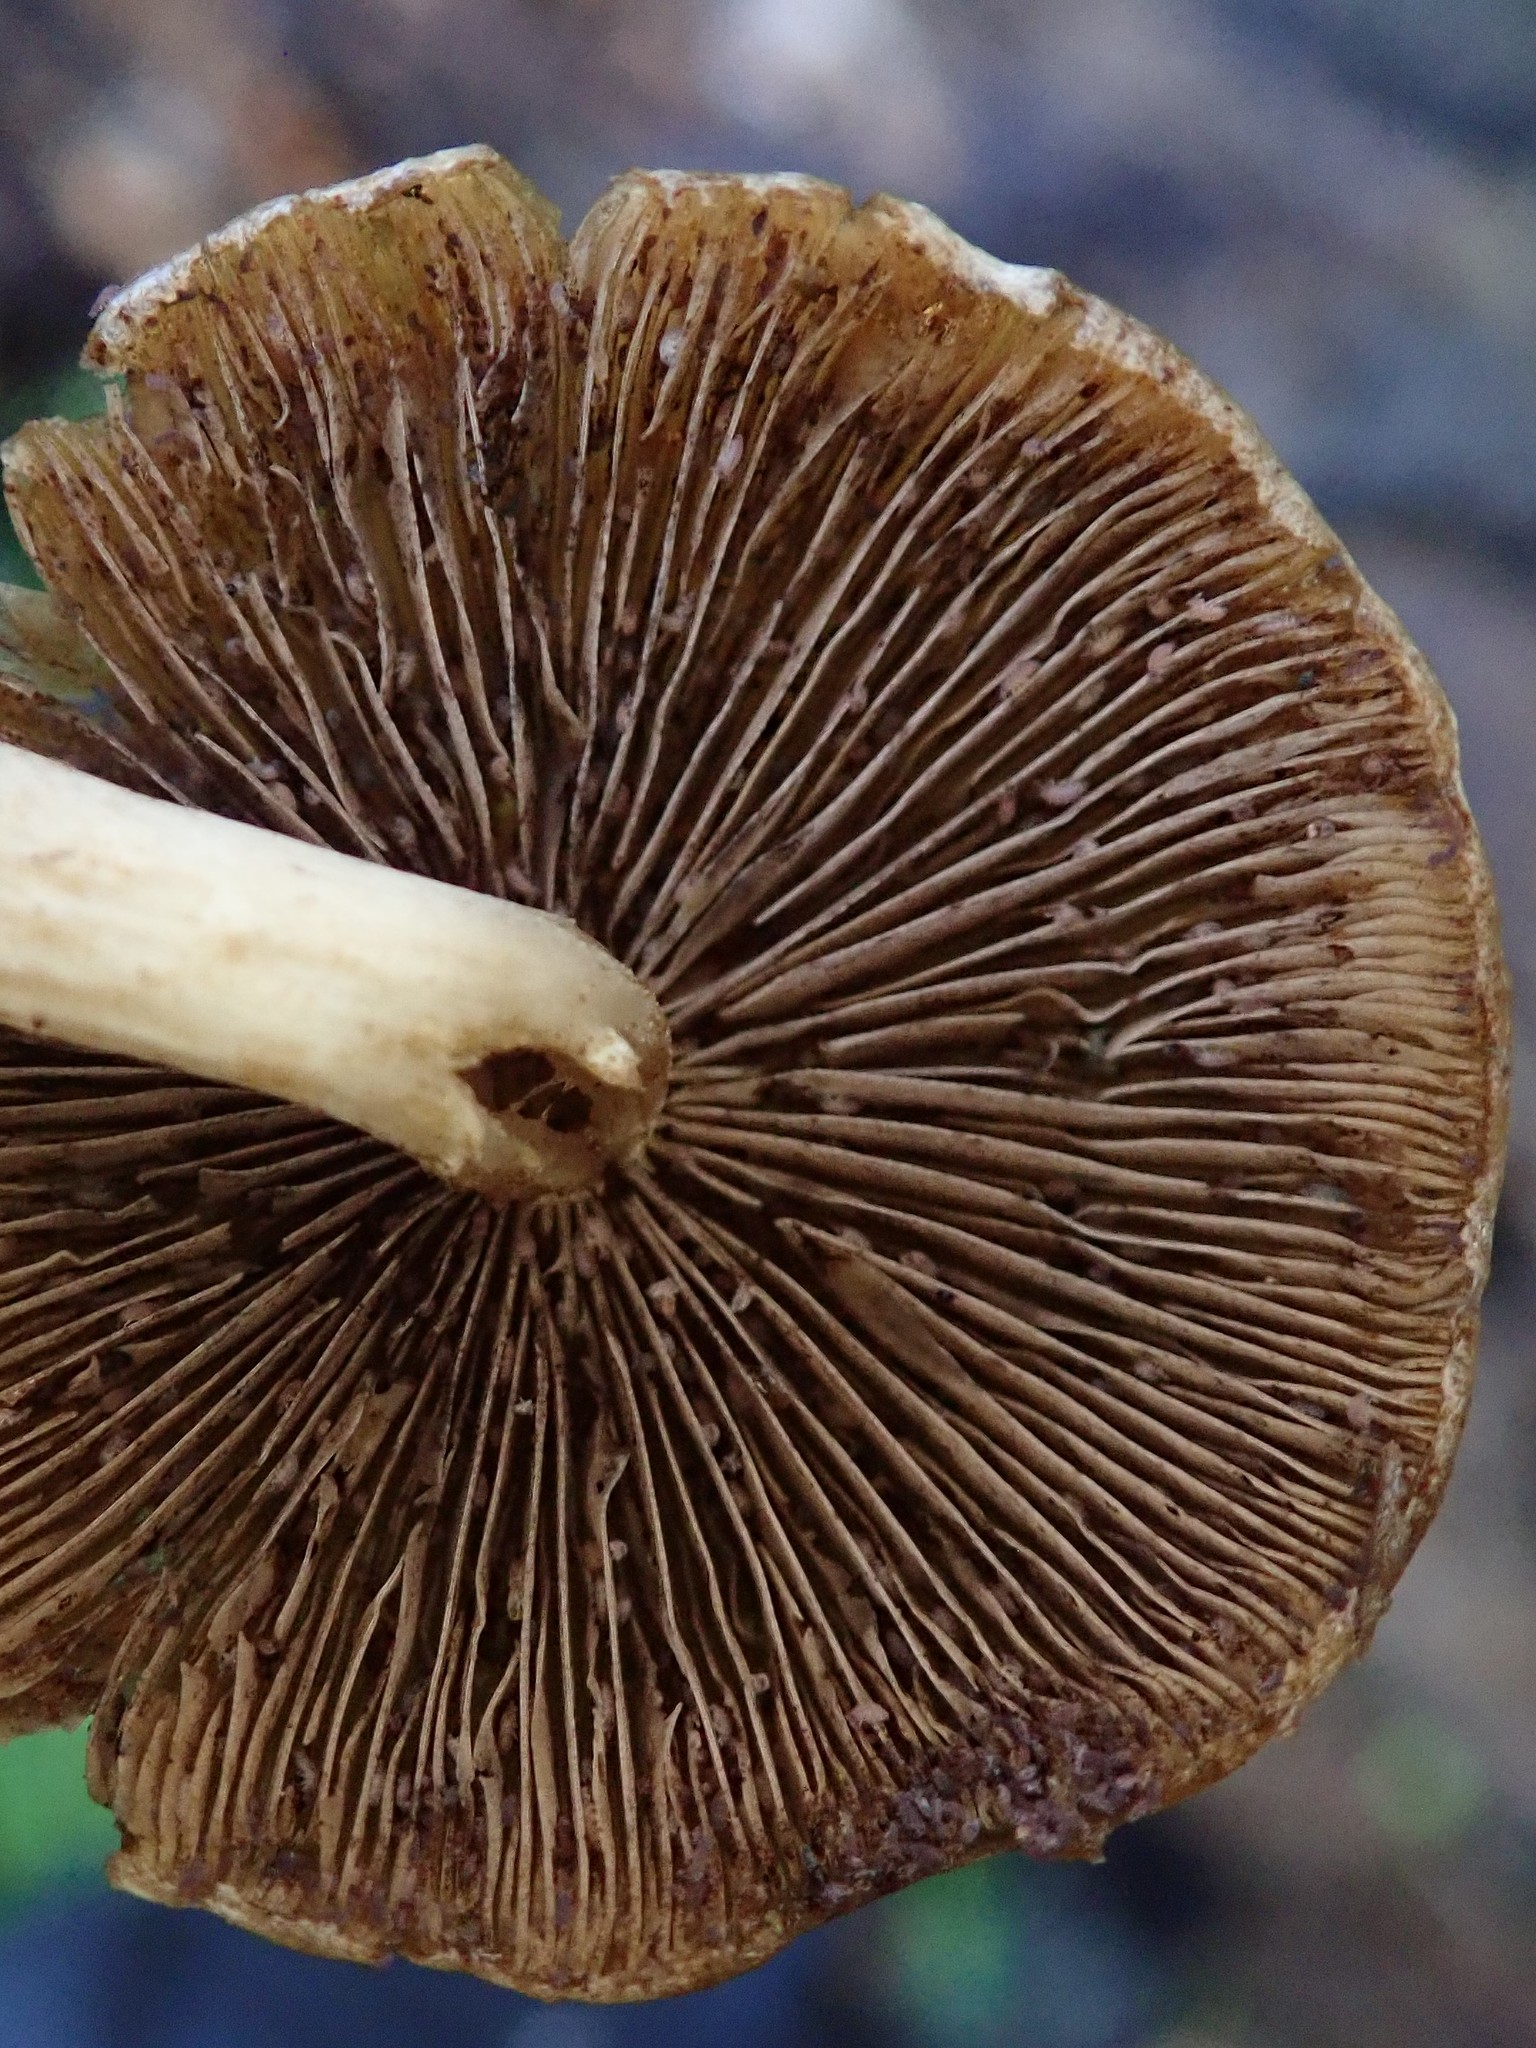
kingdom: Fungi
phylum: Basidiomycota
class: Agaricomycetes
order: Agaricales
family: Psathyrellaceae
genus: Psathyrella
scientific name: Psathyrella piluliformis
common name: Common stump brittlestem
